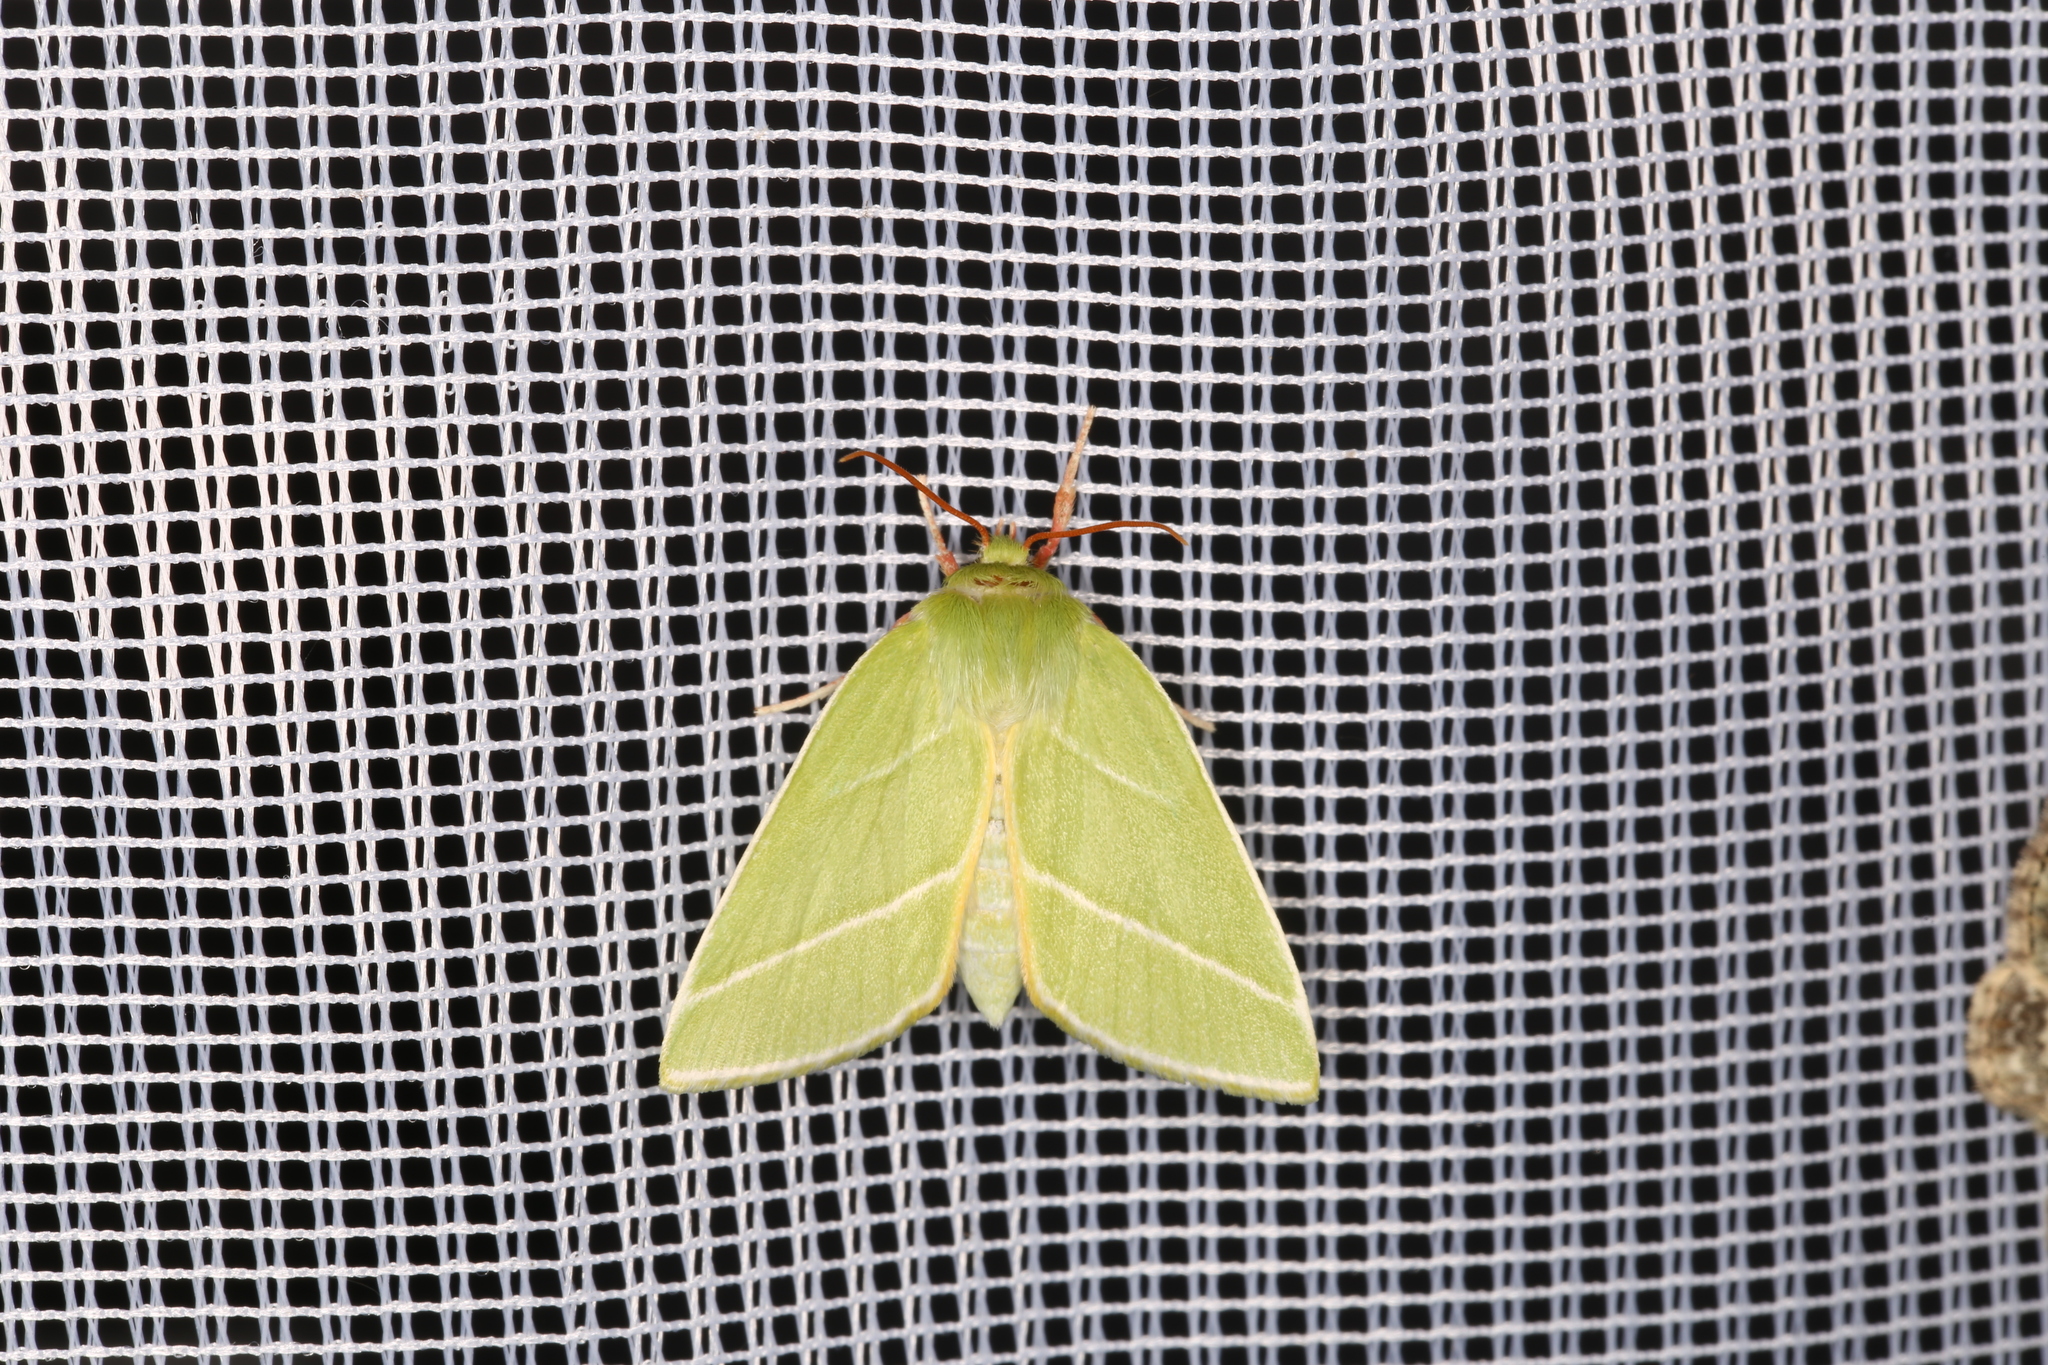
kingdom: Animalia
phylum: Arthropoda
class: Insecta
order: Lepidoptera
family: Nolidae
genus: Pseudoips
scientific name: Pseudoips prasinana
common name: Green silver-lines
